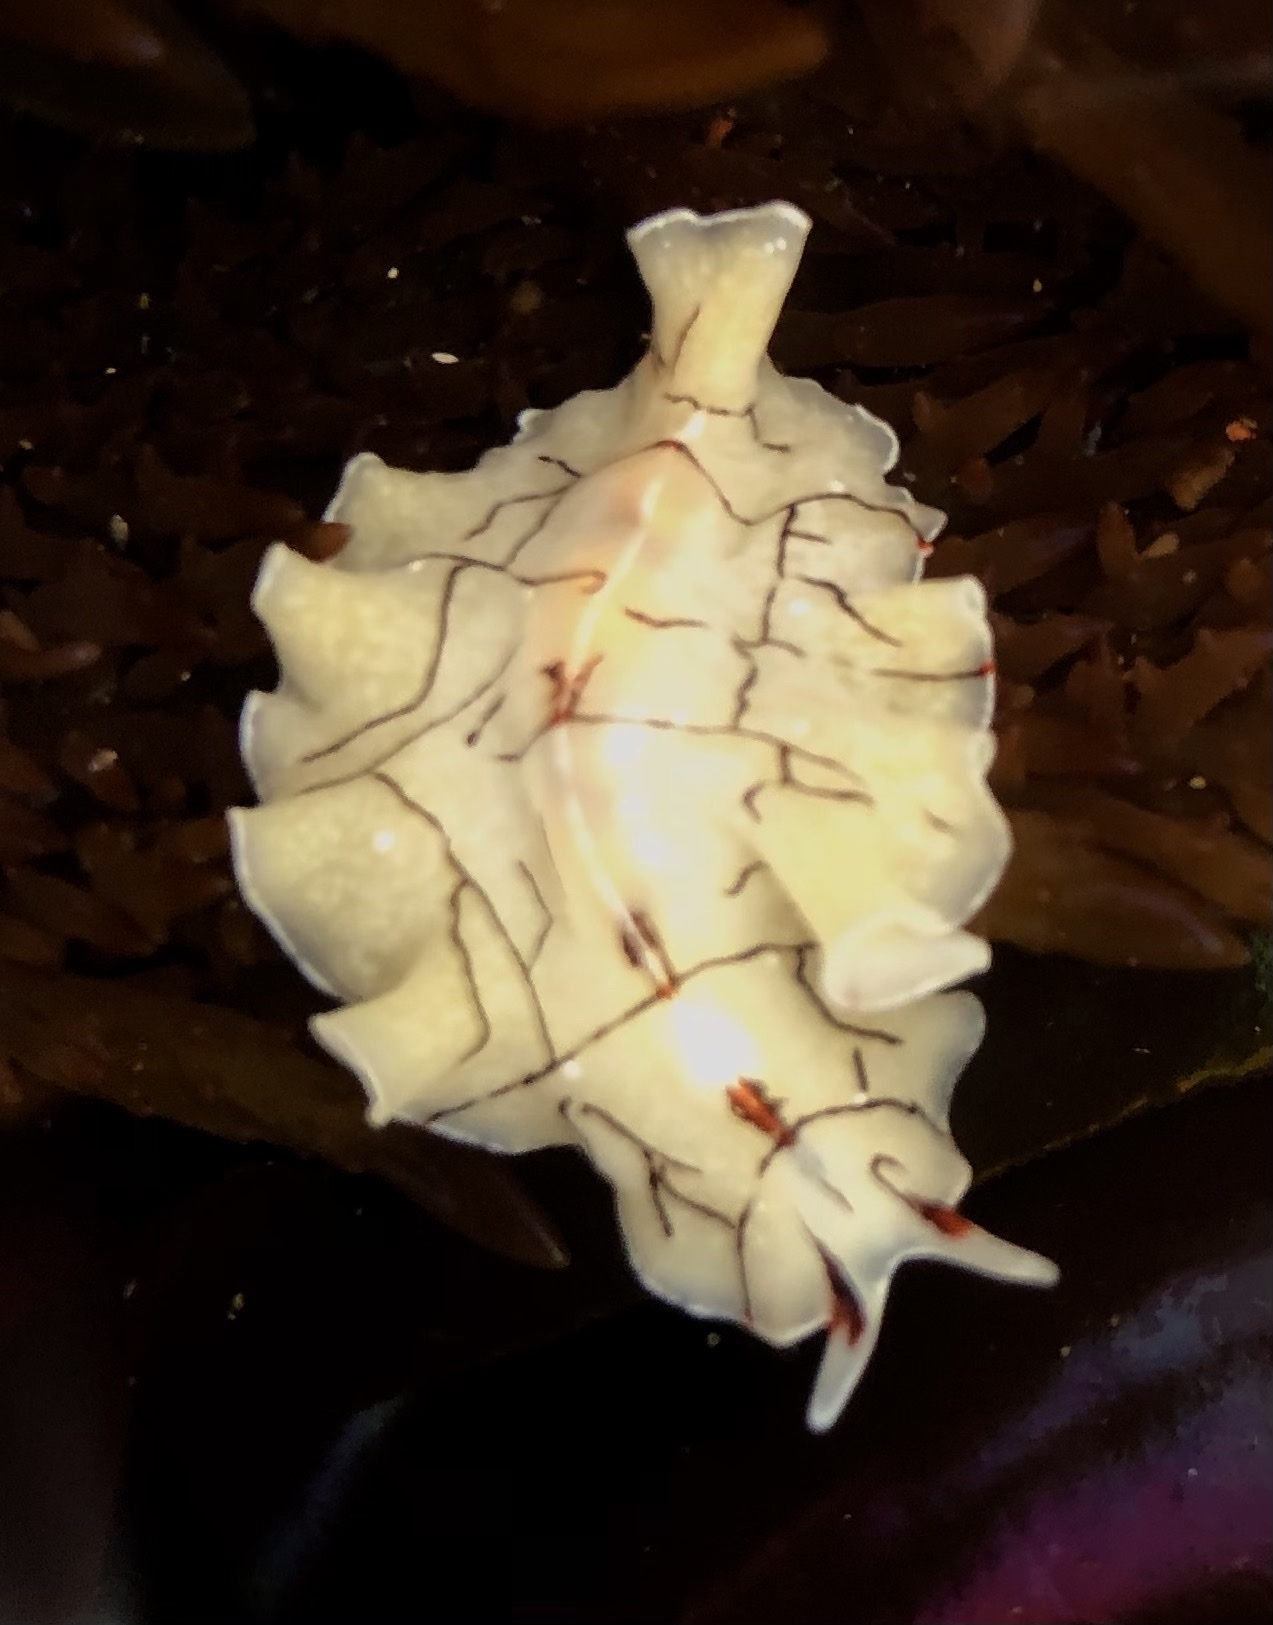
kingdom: Animalia
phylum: Platyhelminthes
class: Turbellaria
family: Euryleptidae
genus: Eurylepta
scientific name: Eurylepta californica
